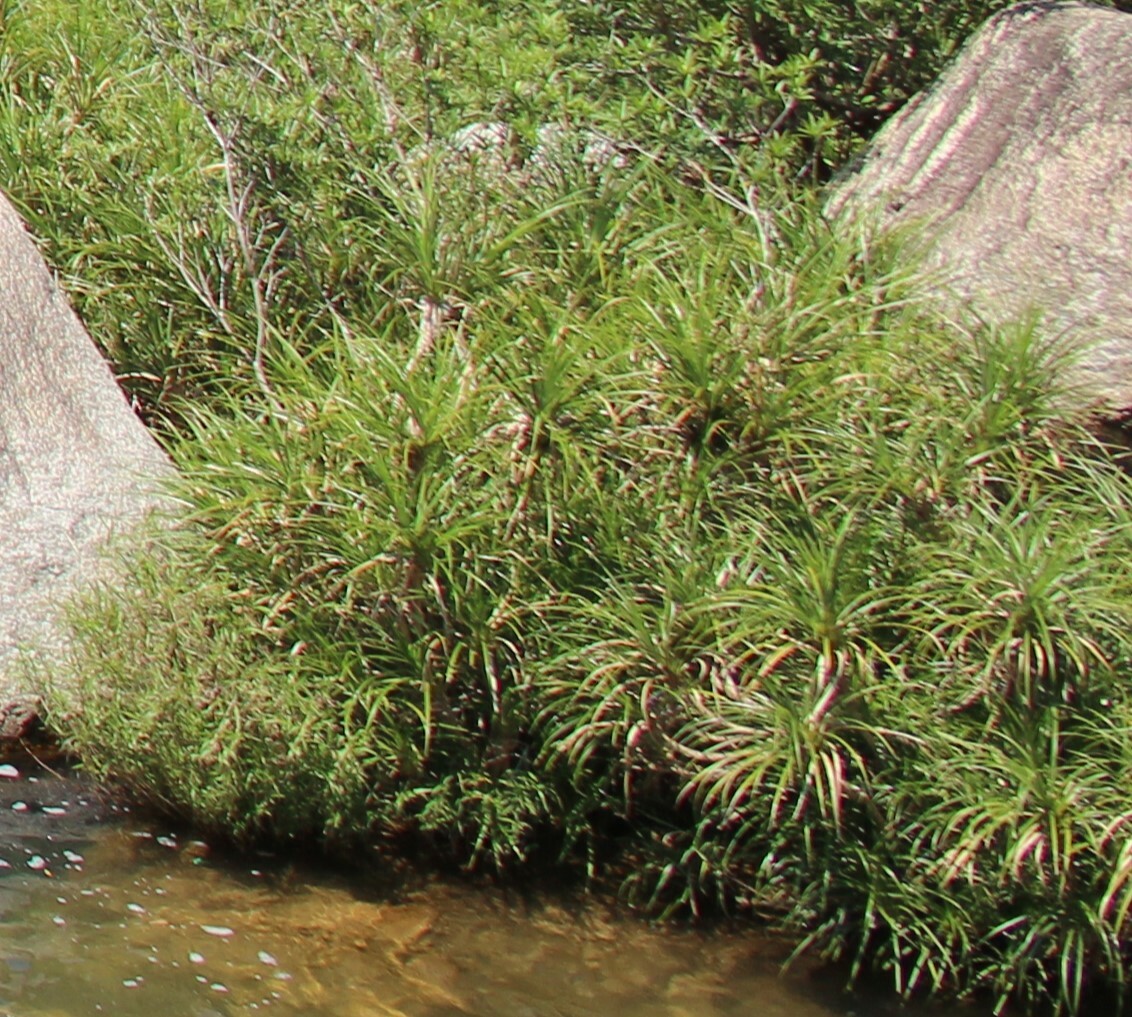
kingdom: Plantae
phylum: Tracheophyta
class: Liliopsida
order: Pandanales
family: Pandanaceae
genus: Pandanus
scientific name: Pandanus fibrosus
